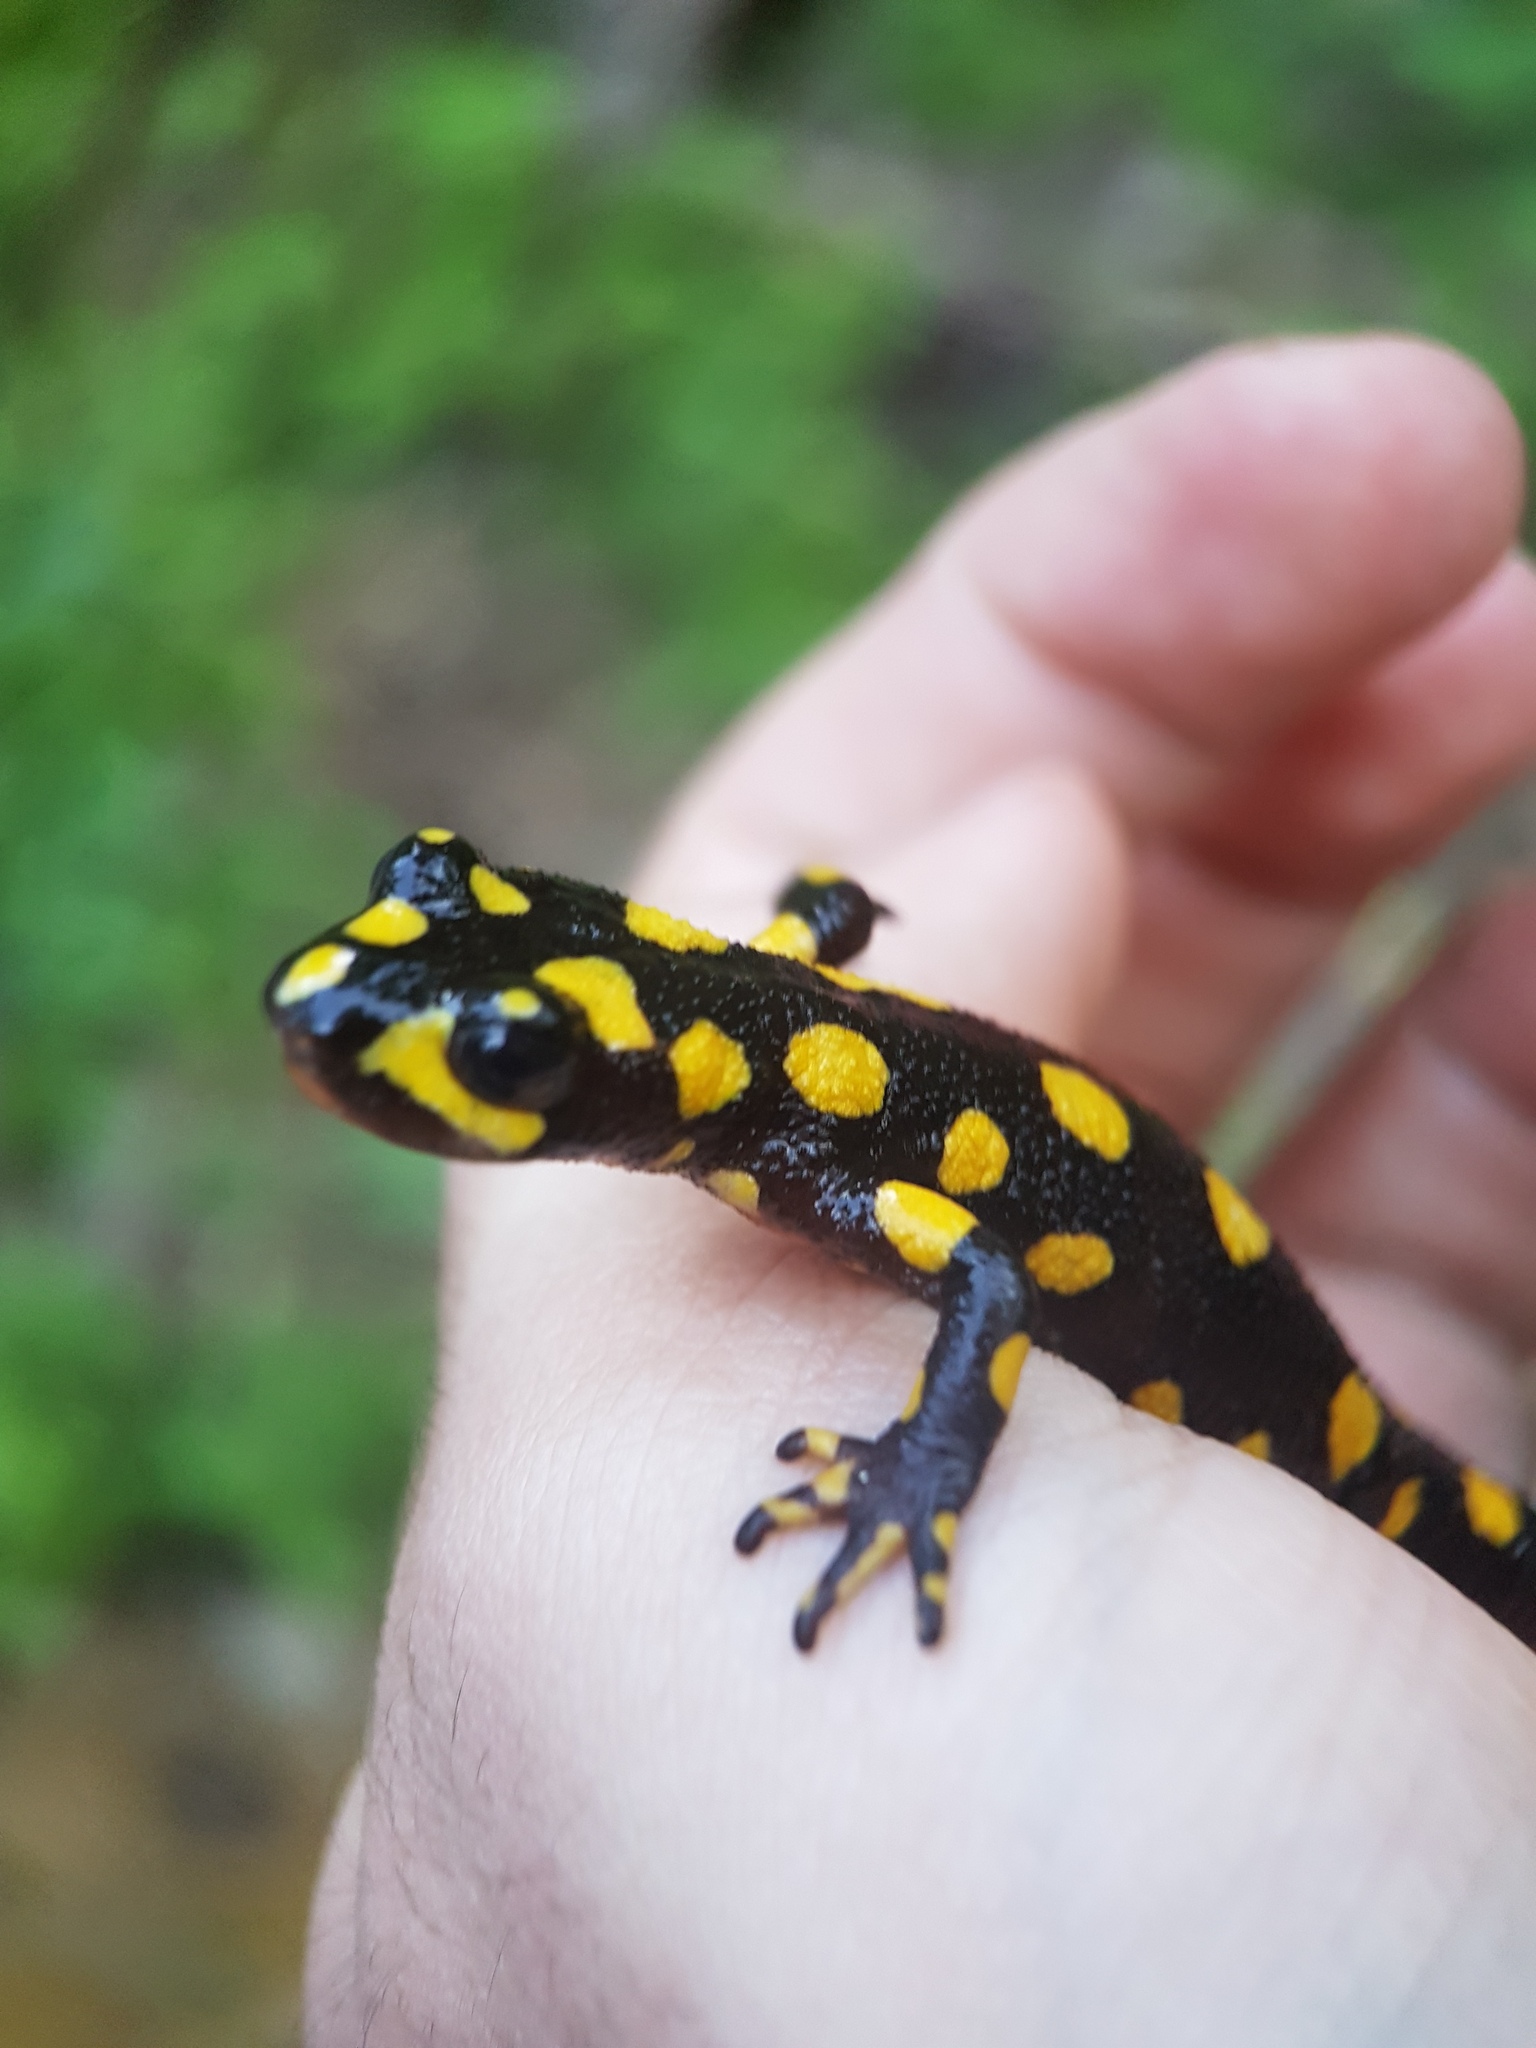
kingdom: Animalia
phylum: Chordata
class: Amphibia
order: Caudata
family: Salamandridae
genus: Neurergus
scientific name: Neurergus derjugini
